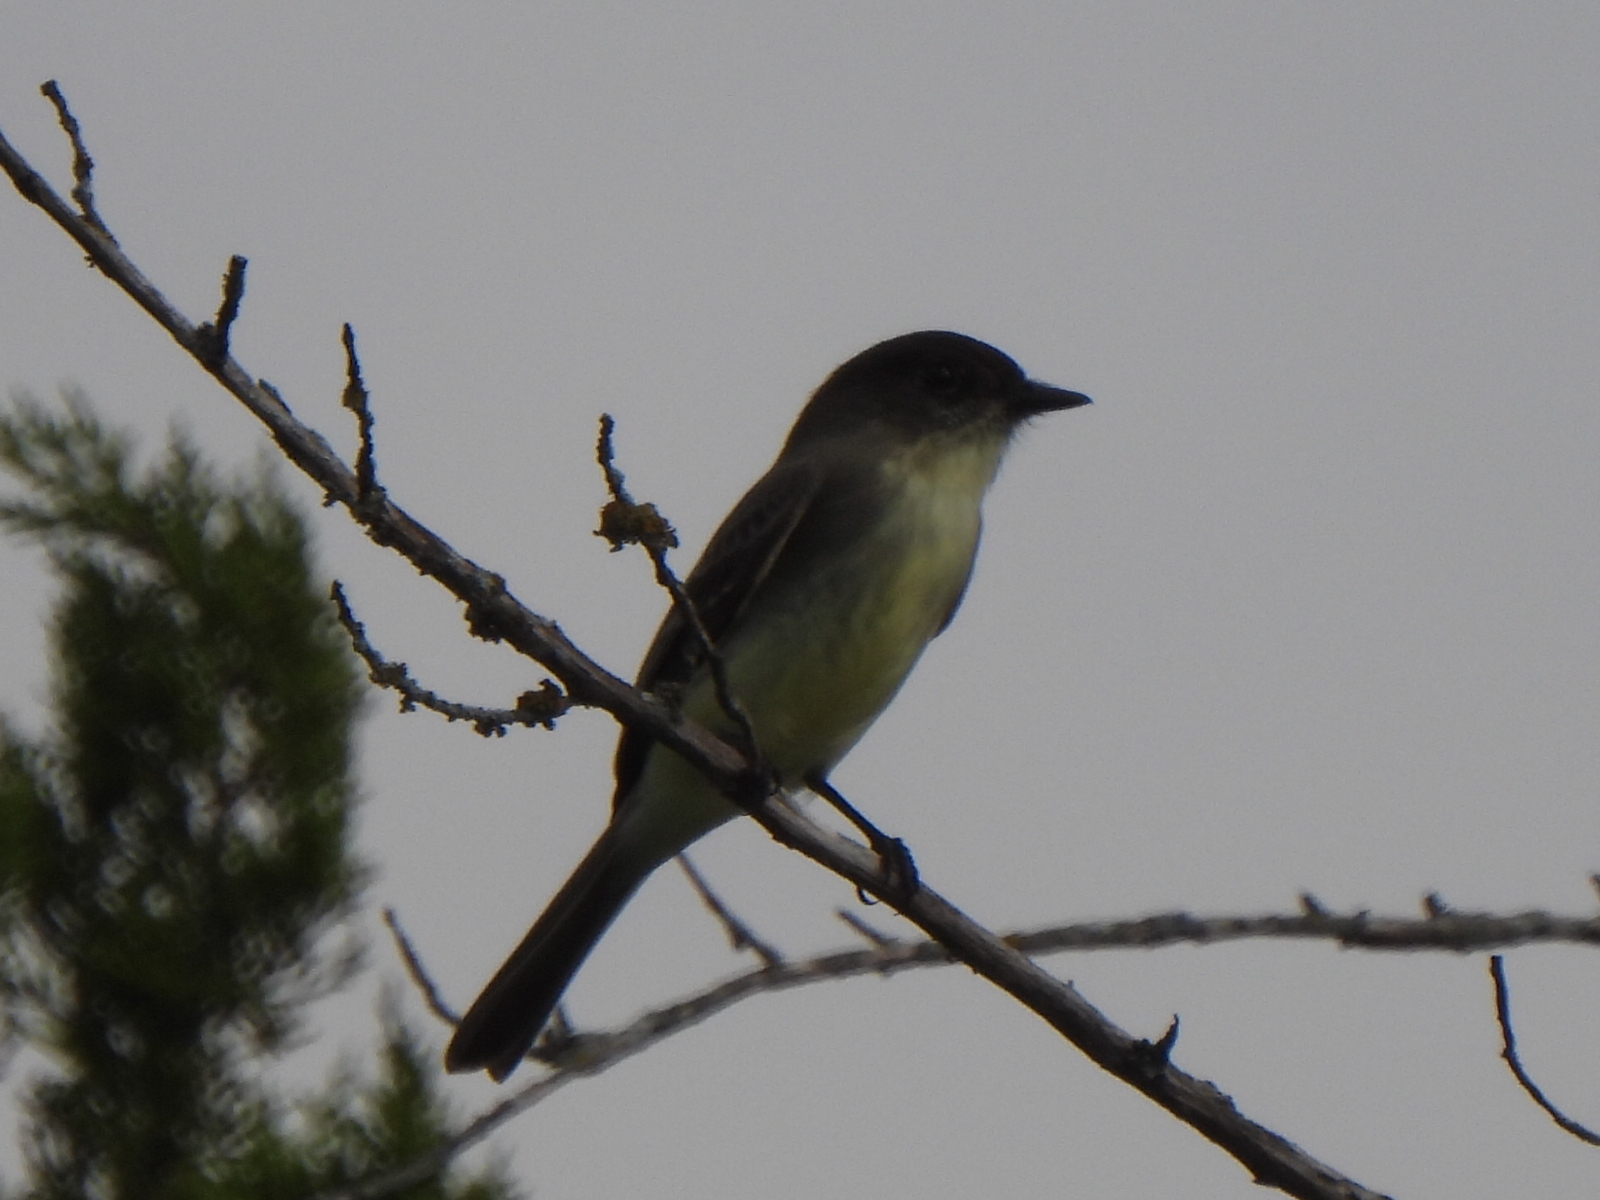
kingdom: Animalia
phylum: Chordata
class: Aves
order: Passeriformes
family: Tyrannidae
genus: Sayornis
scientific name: Sayornis phoebe
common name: Eastern phoebe
